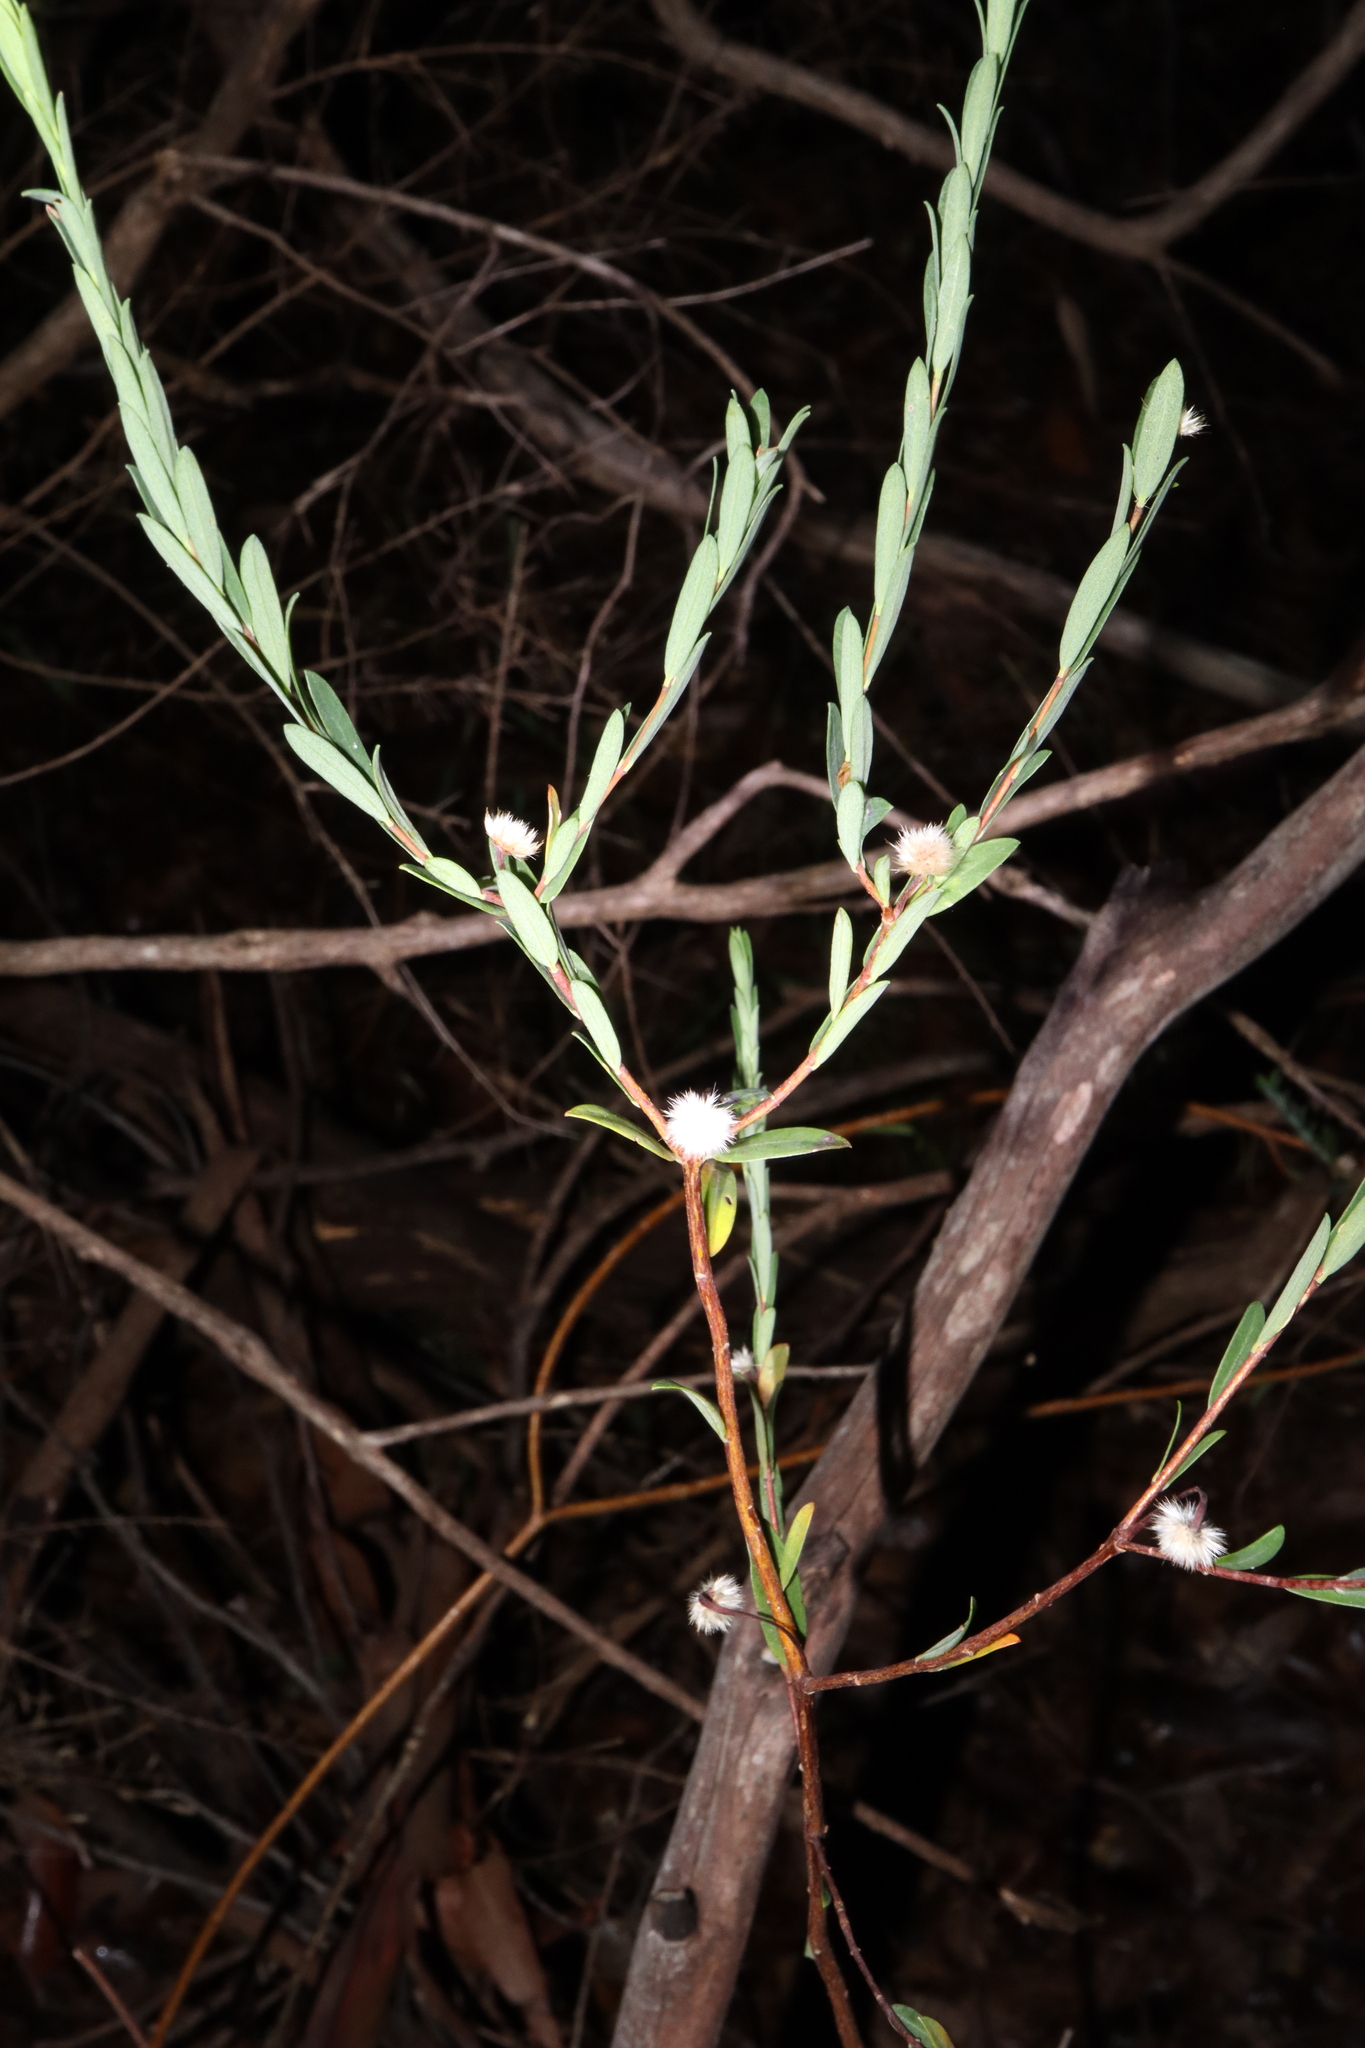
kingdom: Plantae
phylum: Tracheophyta
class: Magnoliopsida
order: Malvales
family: Thymelaeaceae
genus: Pimelea
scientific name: Pimelea linifolia
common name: Queen-of-the-bush
